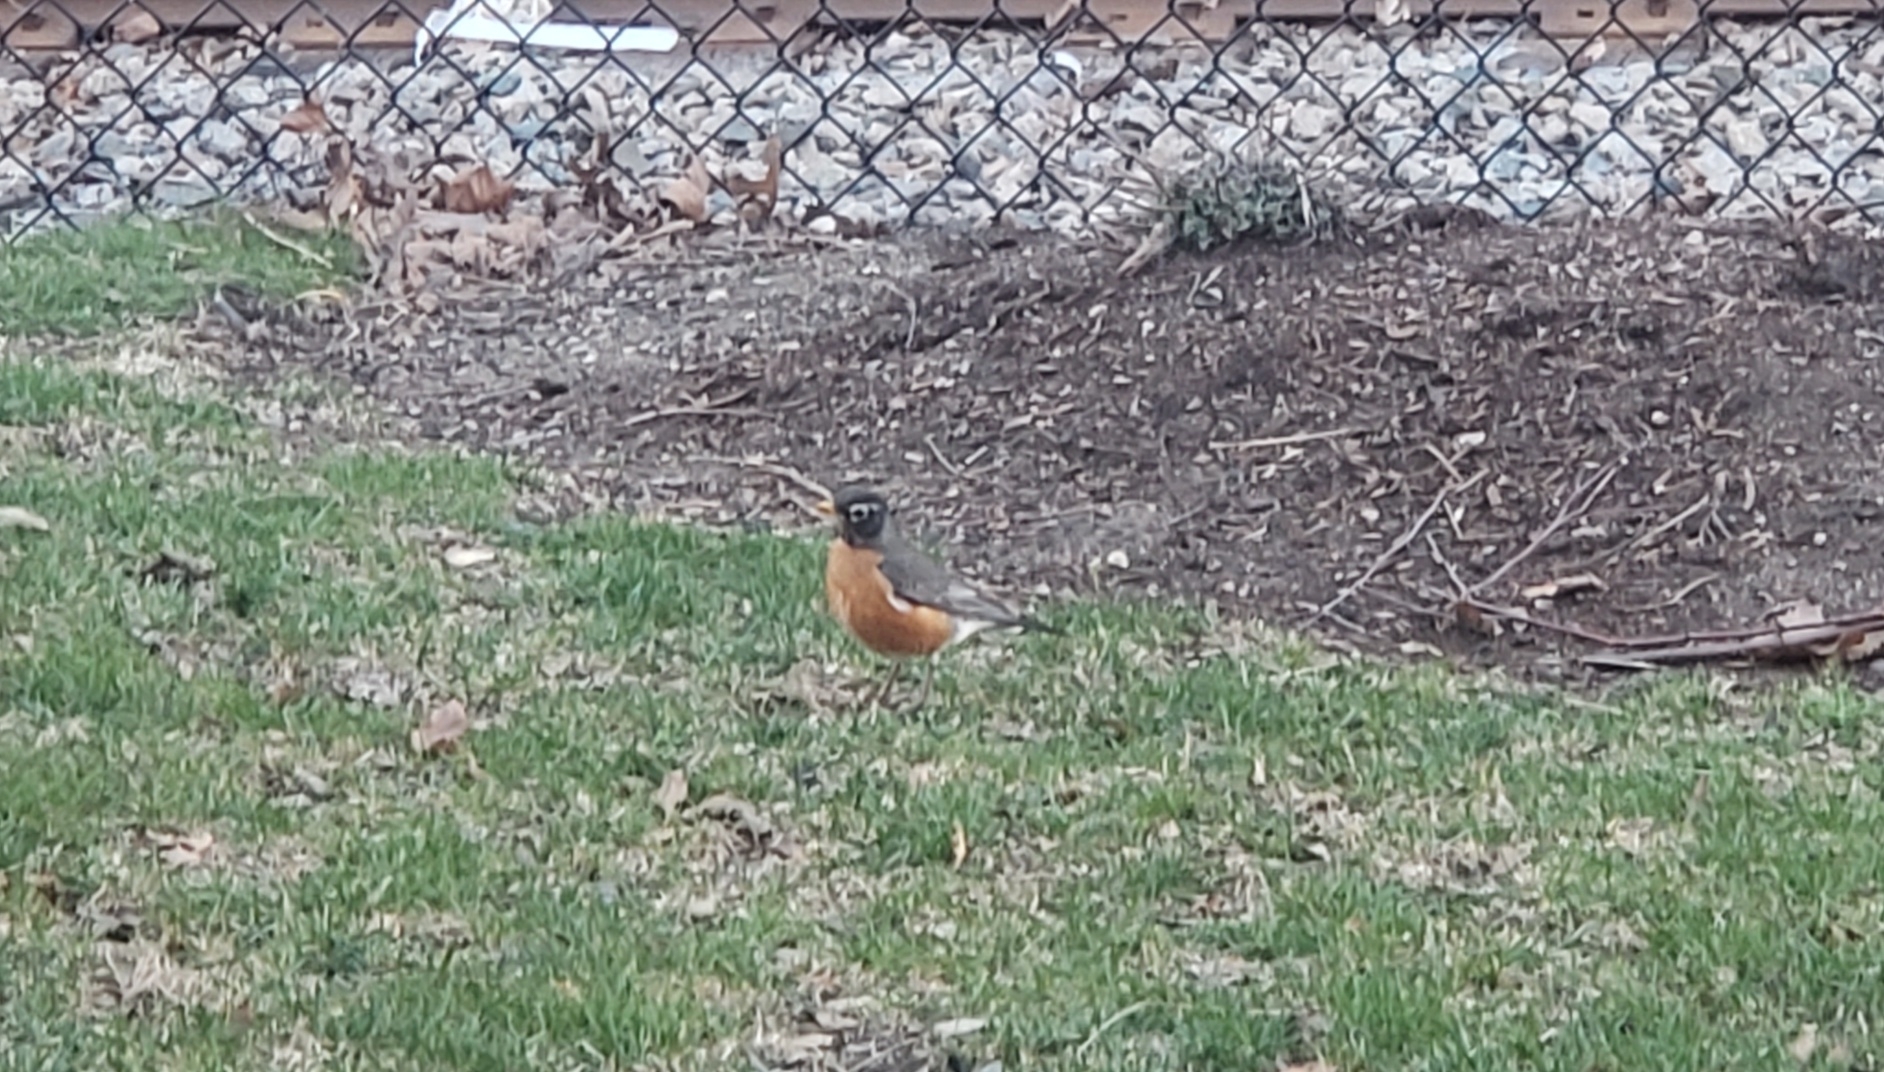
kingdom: Animalia
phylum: Chordata
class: Aves
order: Passeriformes
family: Turdidae
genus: Turdus
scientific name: Turdus migratorius
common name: American robin
